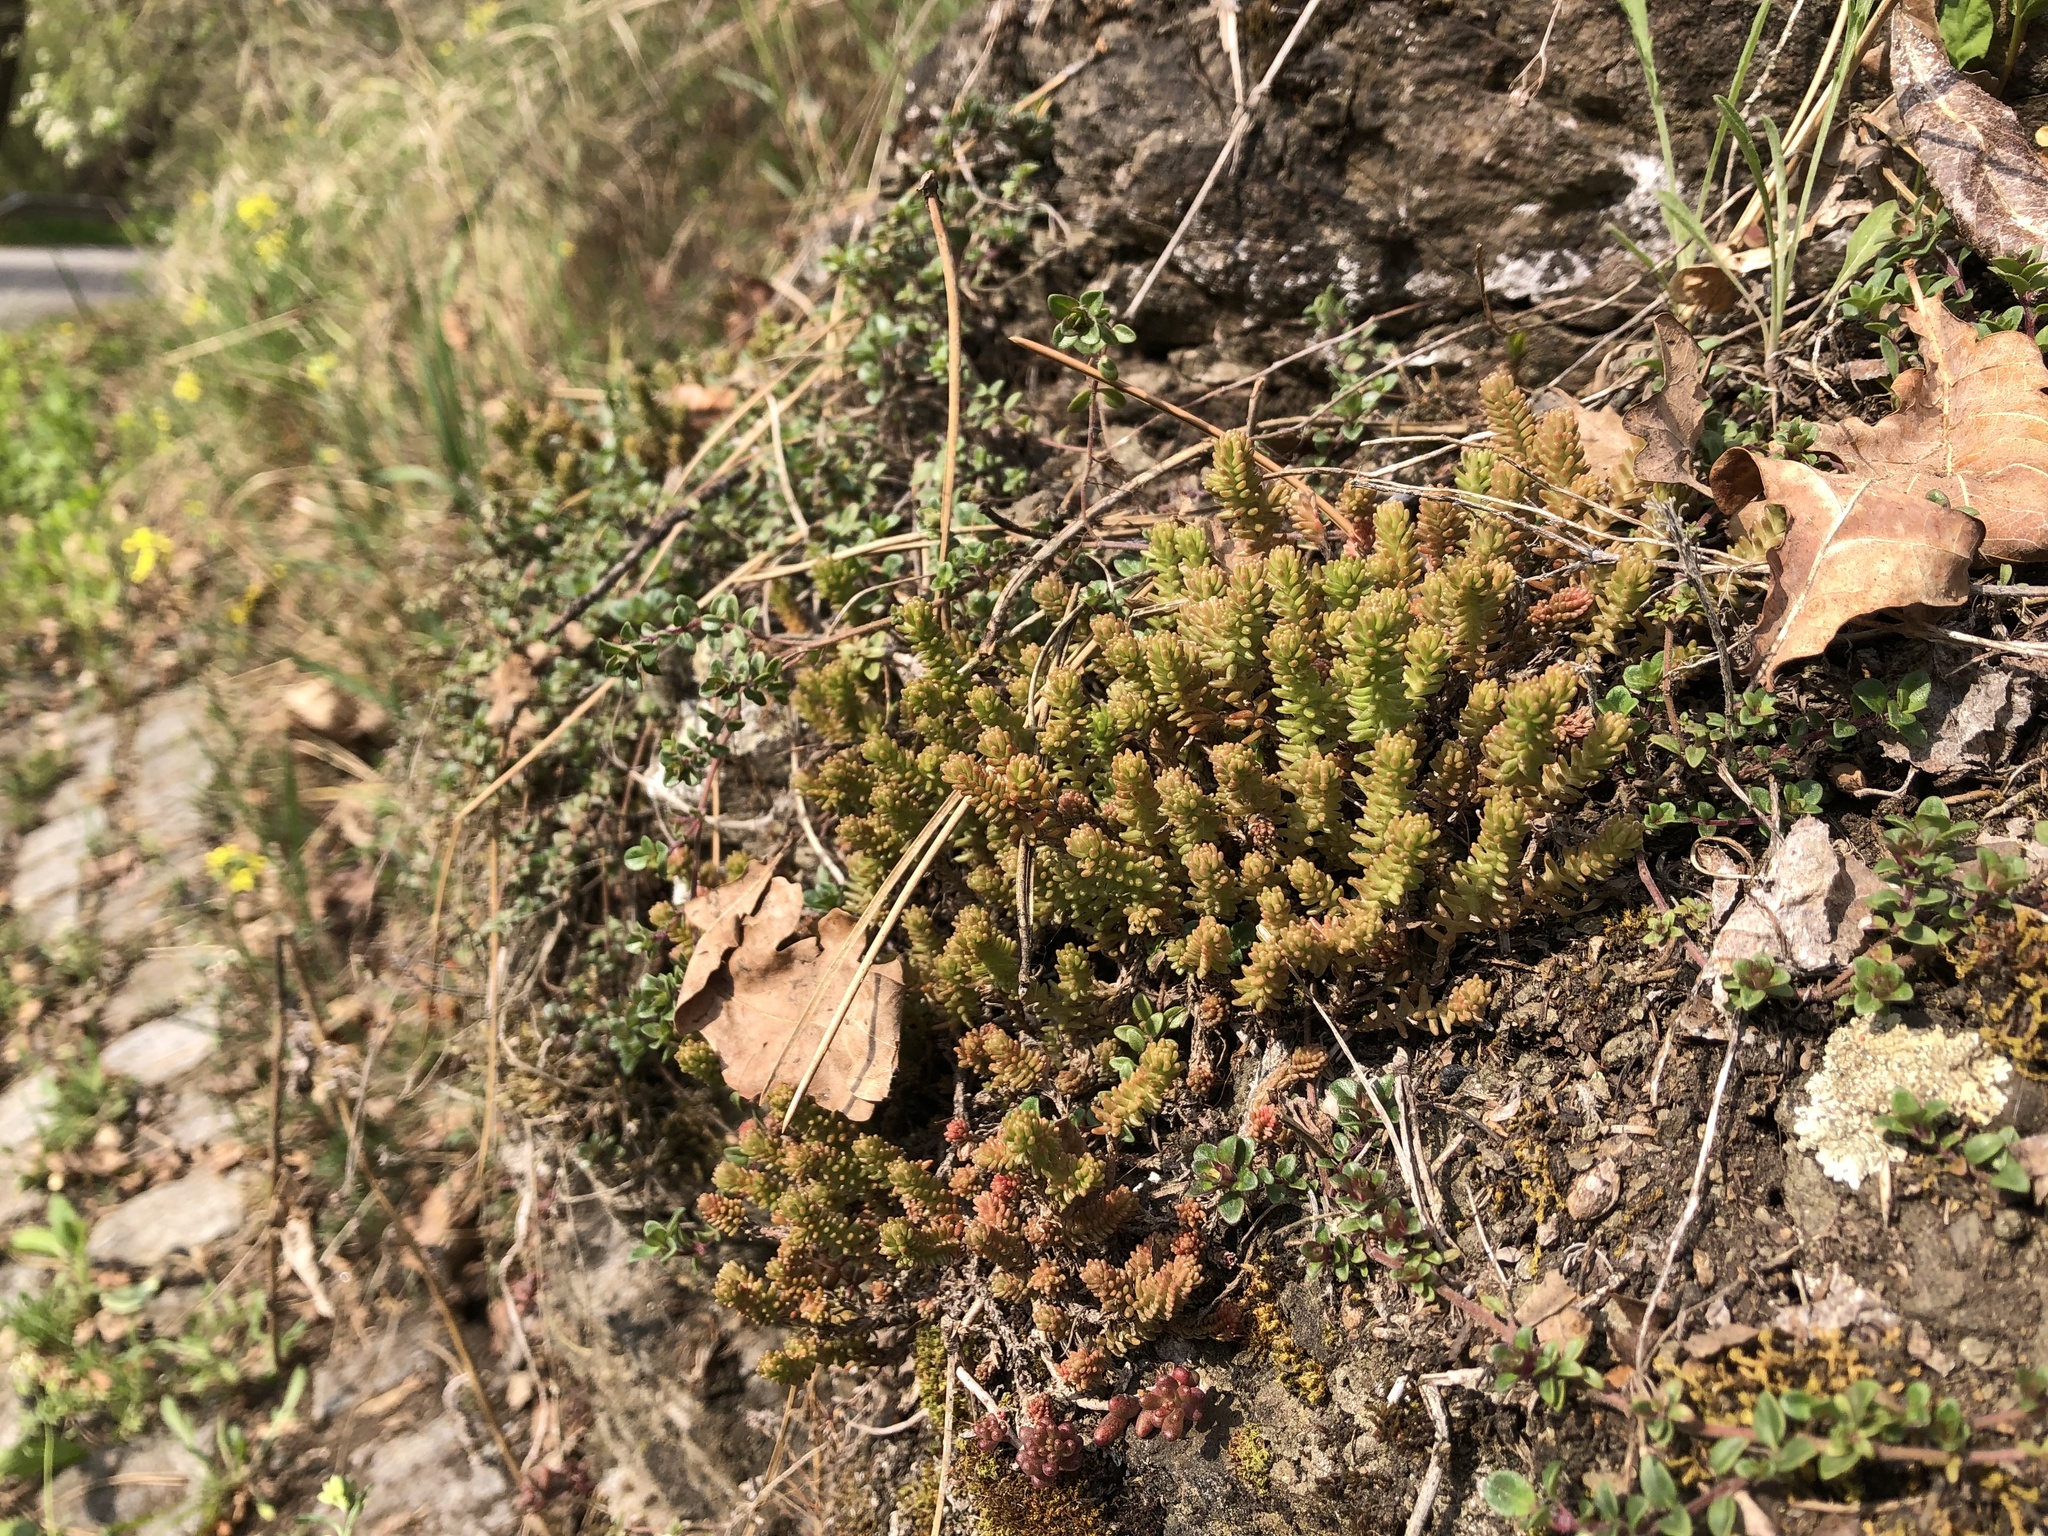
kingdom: Plantae
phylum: Tracheophyta
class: Magnoliopsida
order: Saxifragales
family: Crassulaceae
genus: Sedum
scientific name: Sedum sexangulare
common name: Tasteless stonecrop
